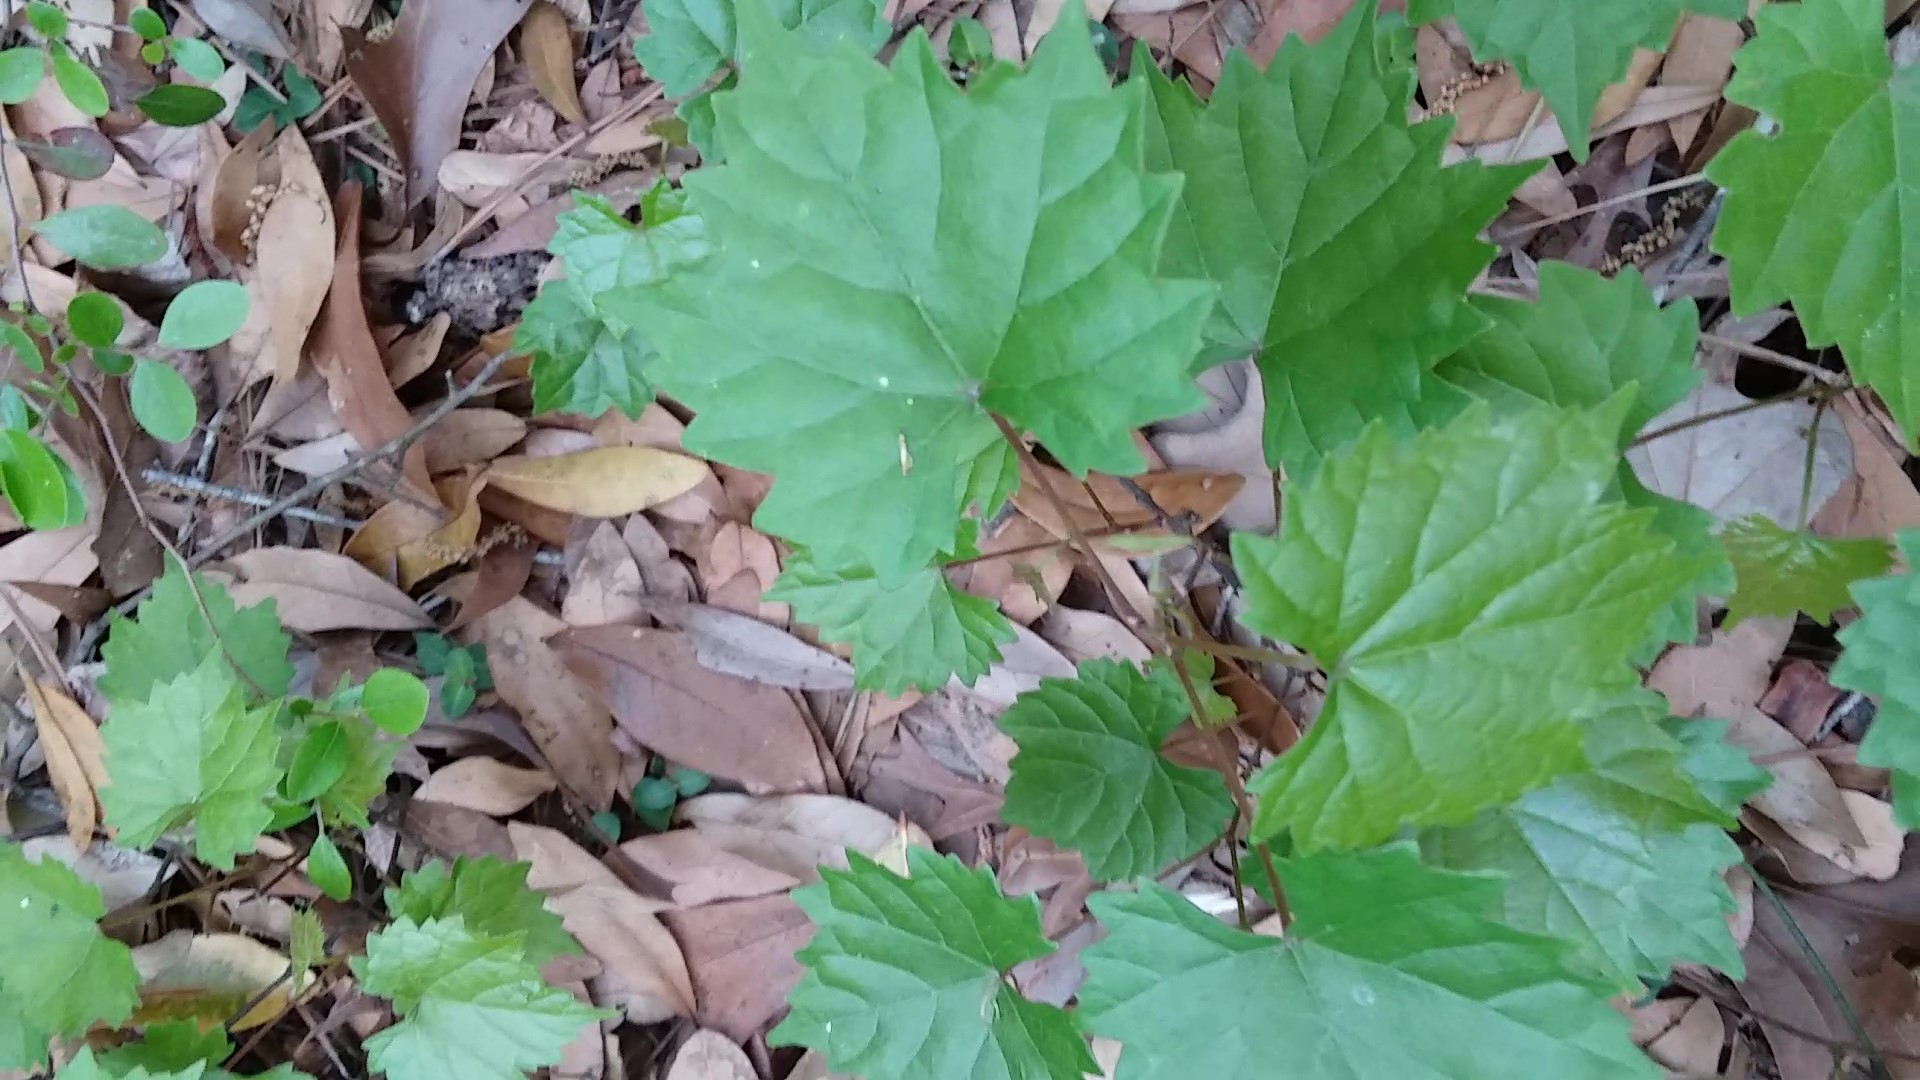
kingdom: Plantae
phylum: Tracheophyta
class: Magnoliopsida
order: Vitales
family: Vitaceae
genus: Vitis
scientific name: Vitis rotundifolia
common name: Muscadine grape
